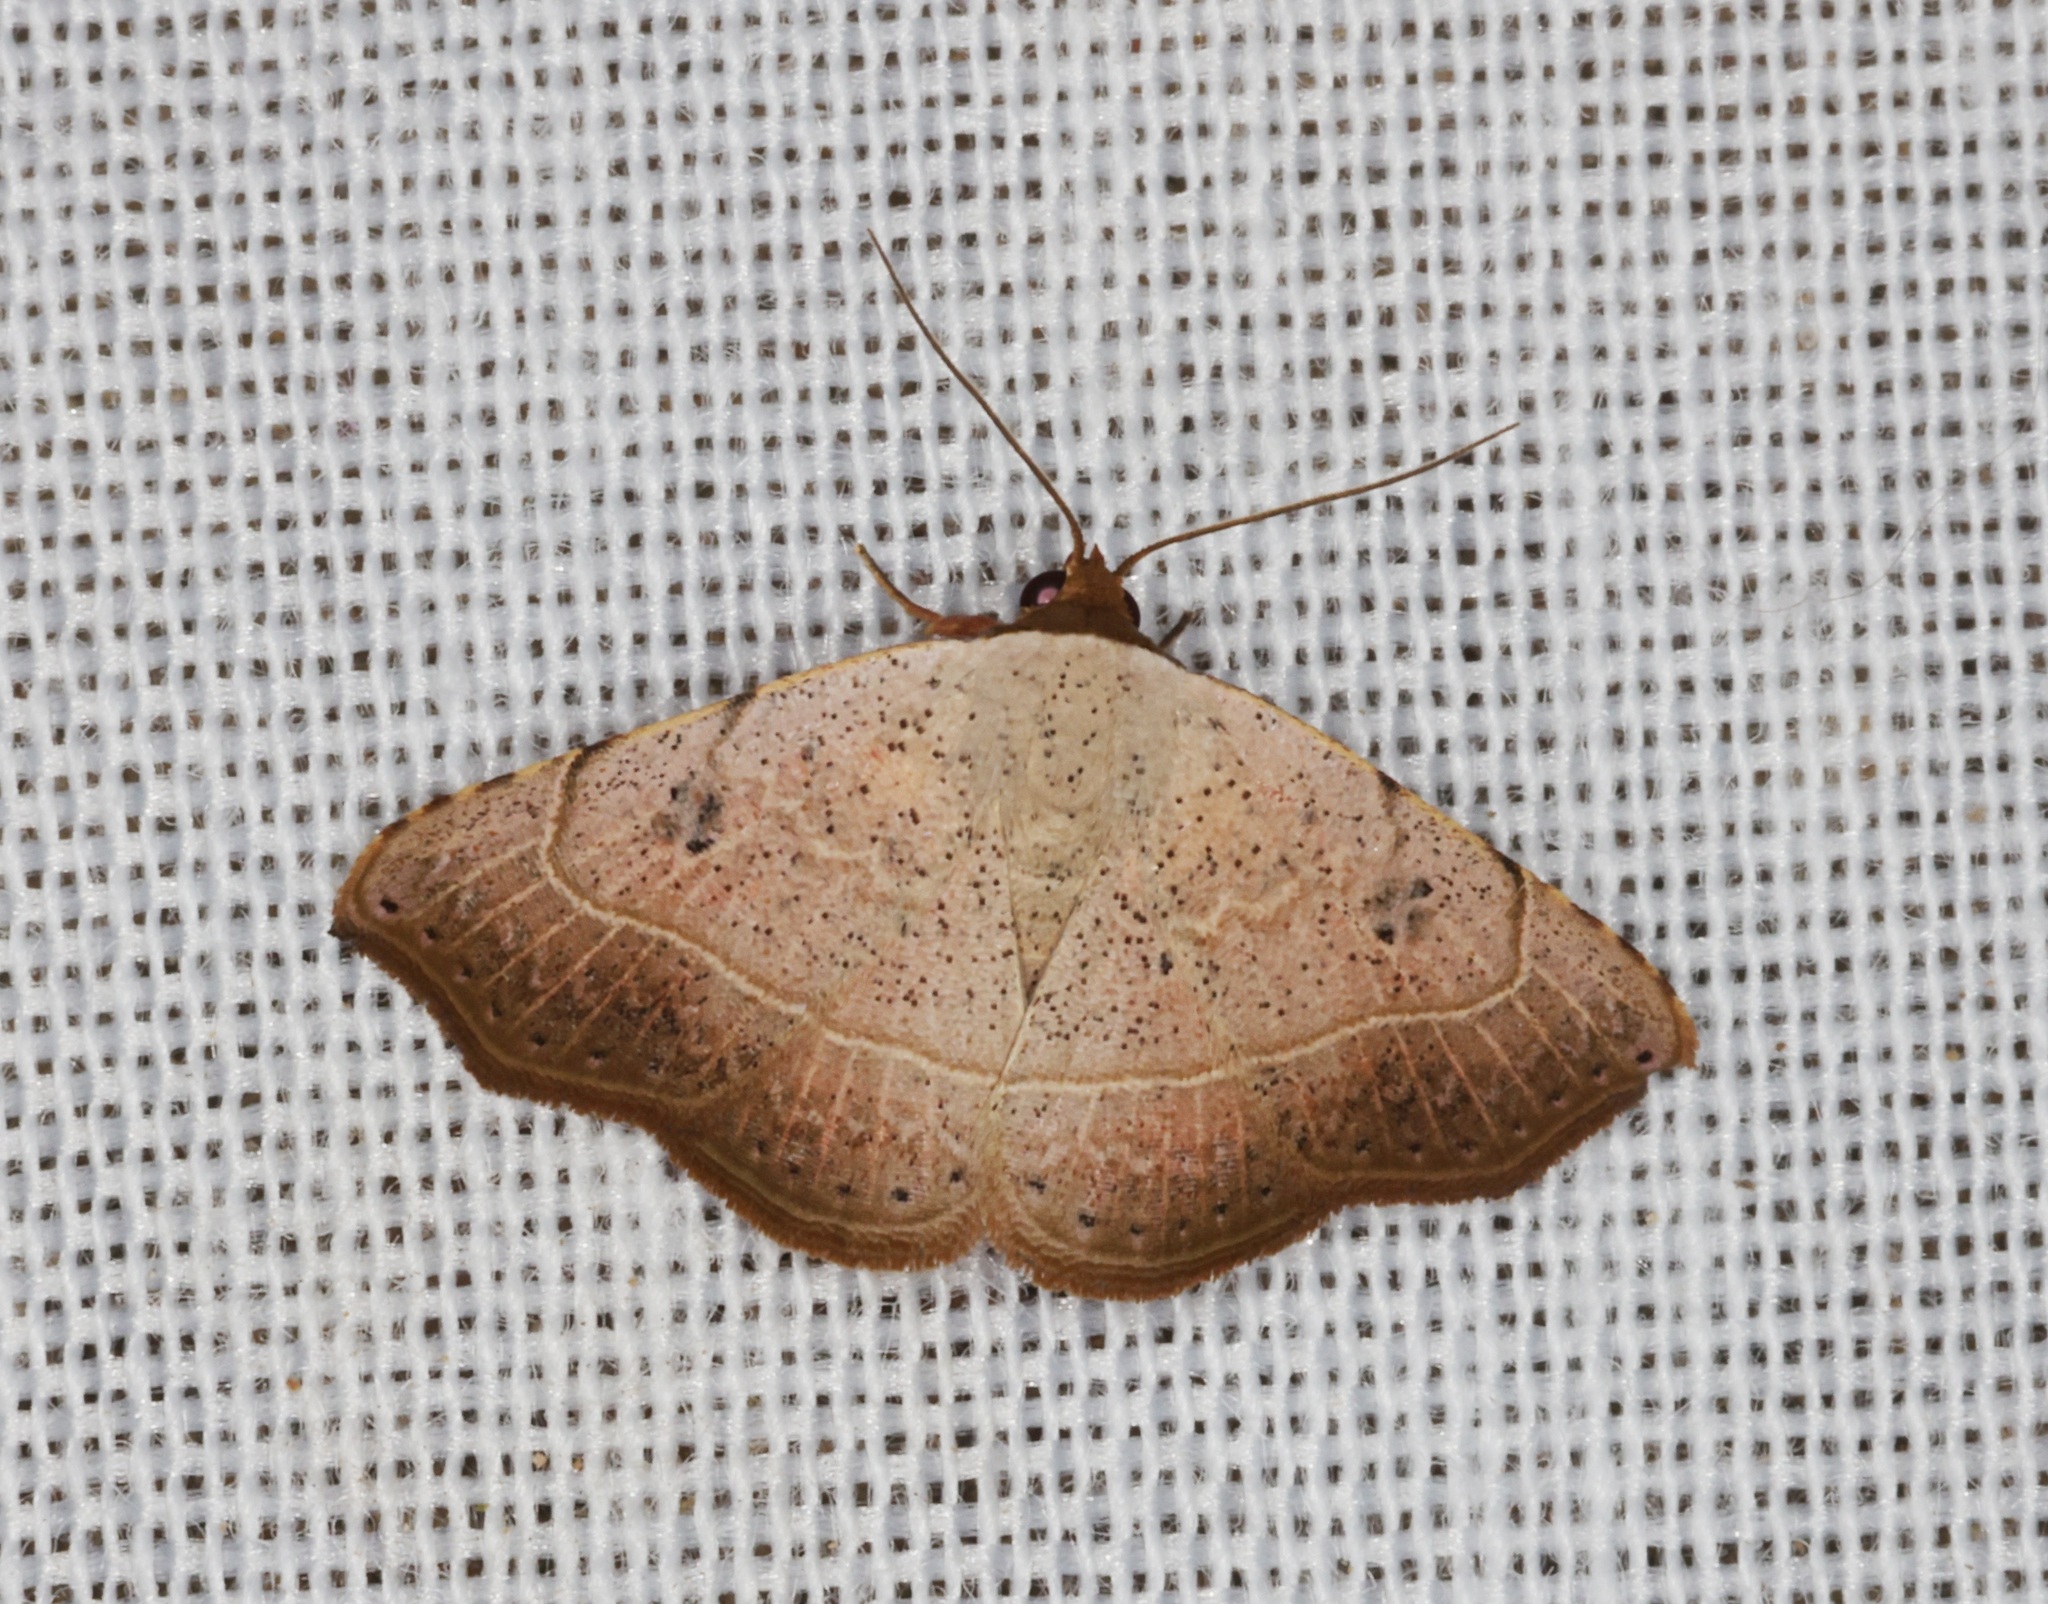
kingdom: Animalia
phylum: Arthropoda
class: Insecta
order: Lepidoptera
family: Erebidae
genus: Laspeyria
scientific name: Laspeyria ruficeps
